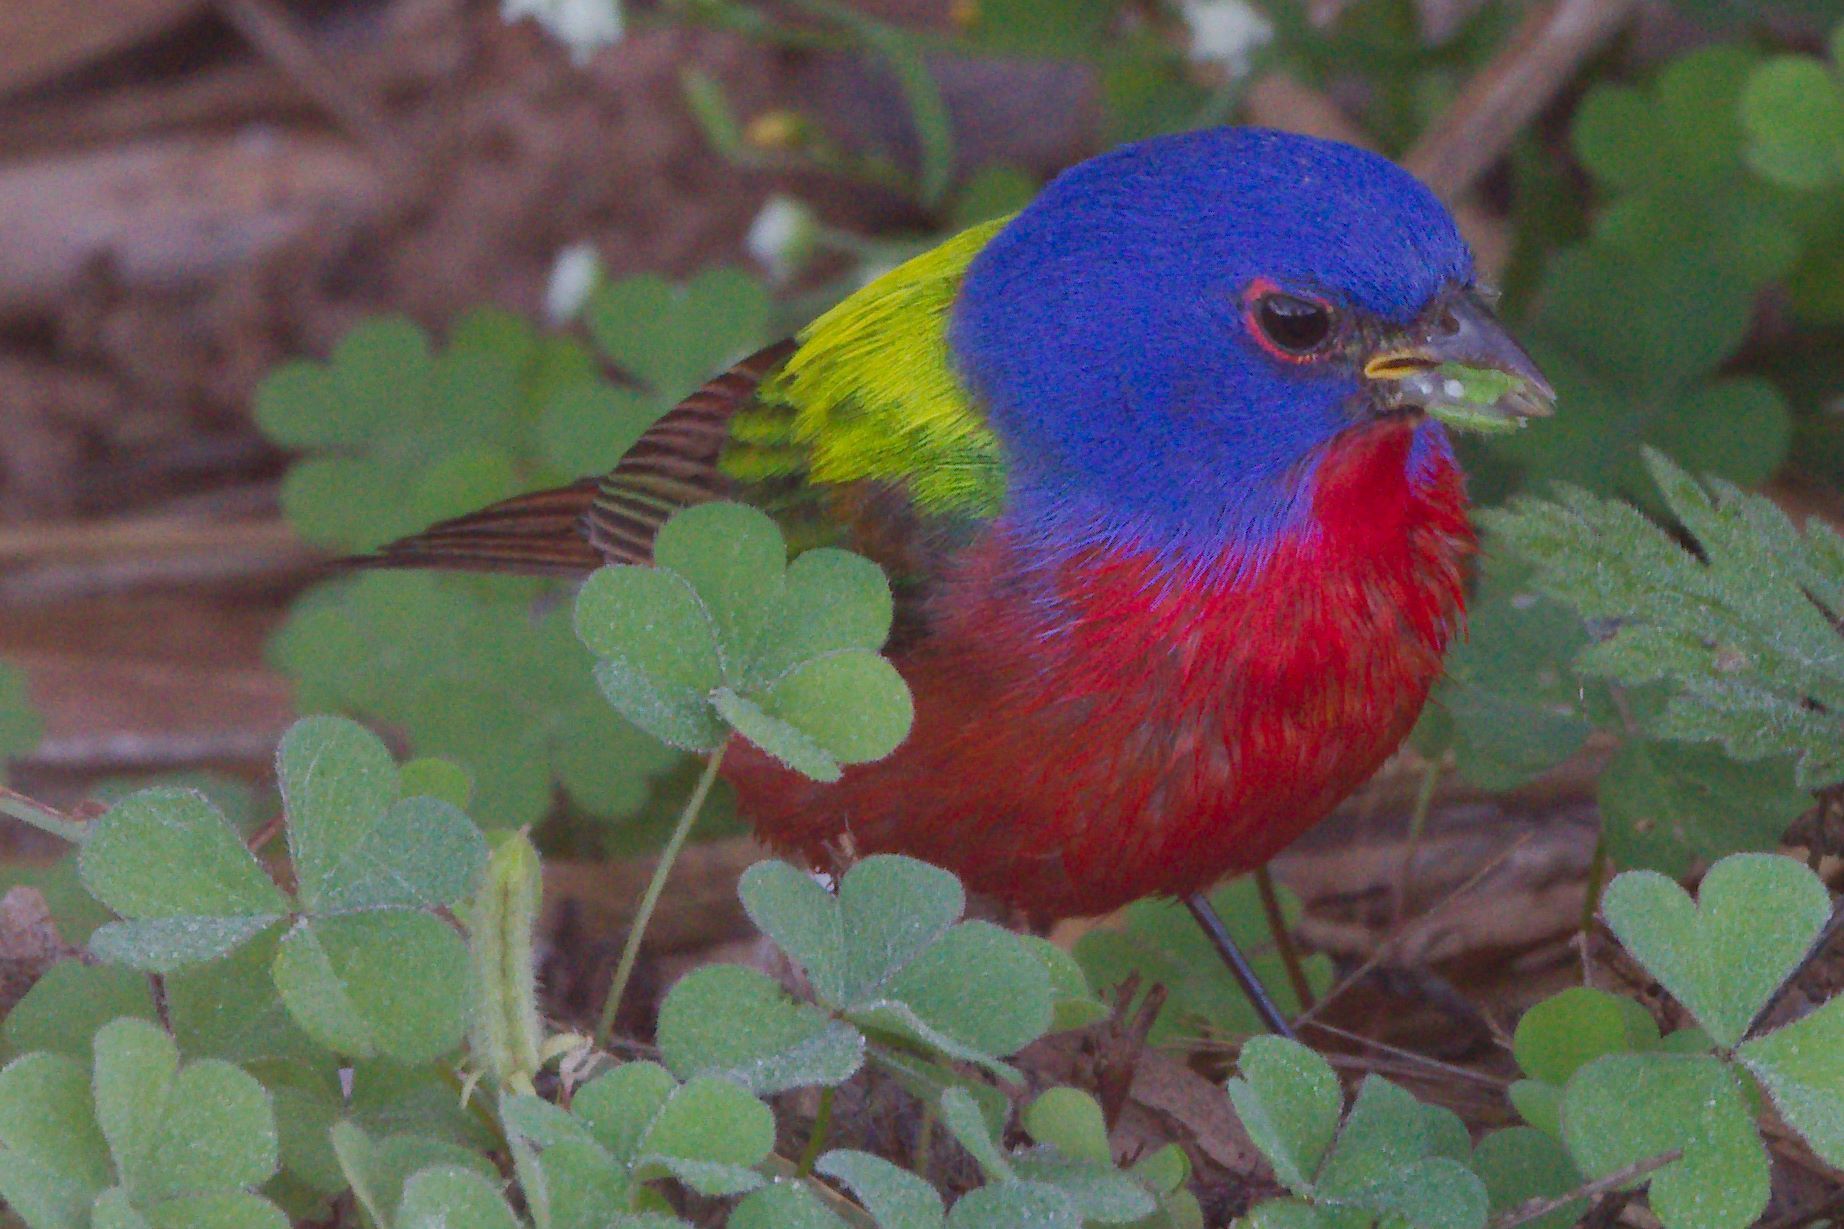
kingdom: Animalia
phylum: Chordata
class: Aves
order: Passeriformes
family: Cardinalidae
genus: Passerina
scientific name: Passerina ciris
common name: Painted bunting
